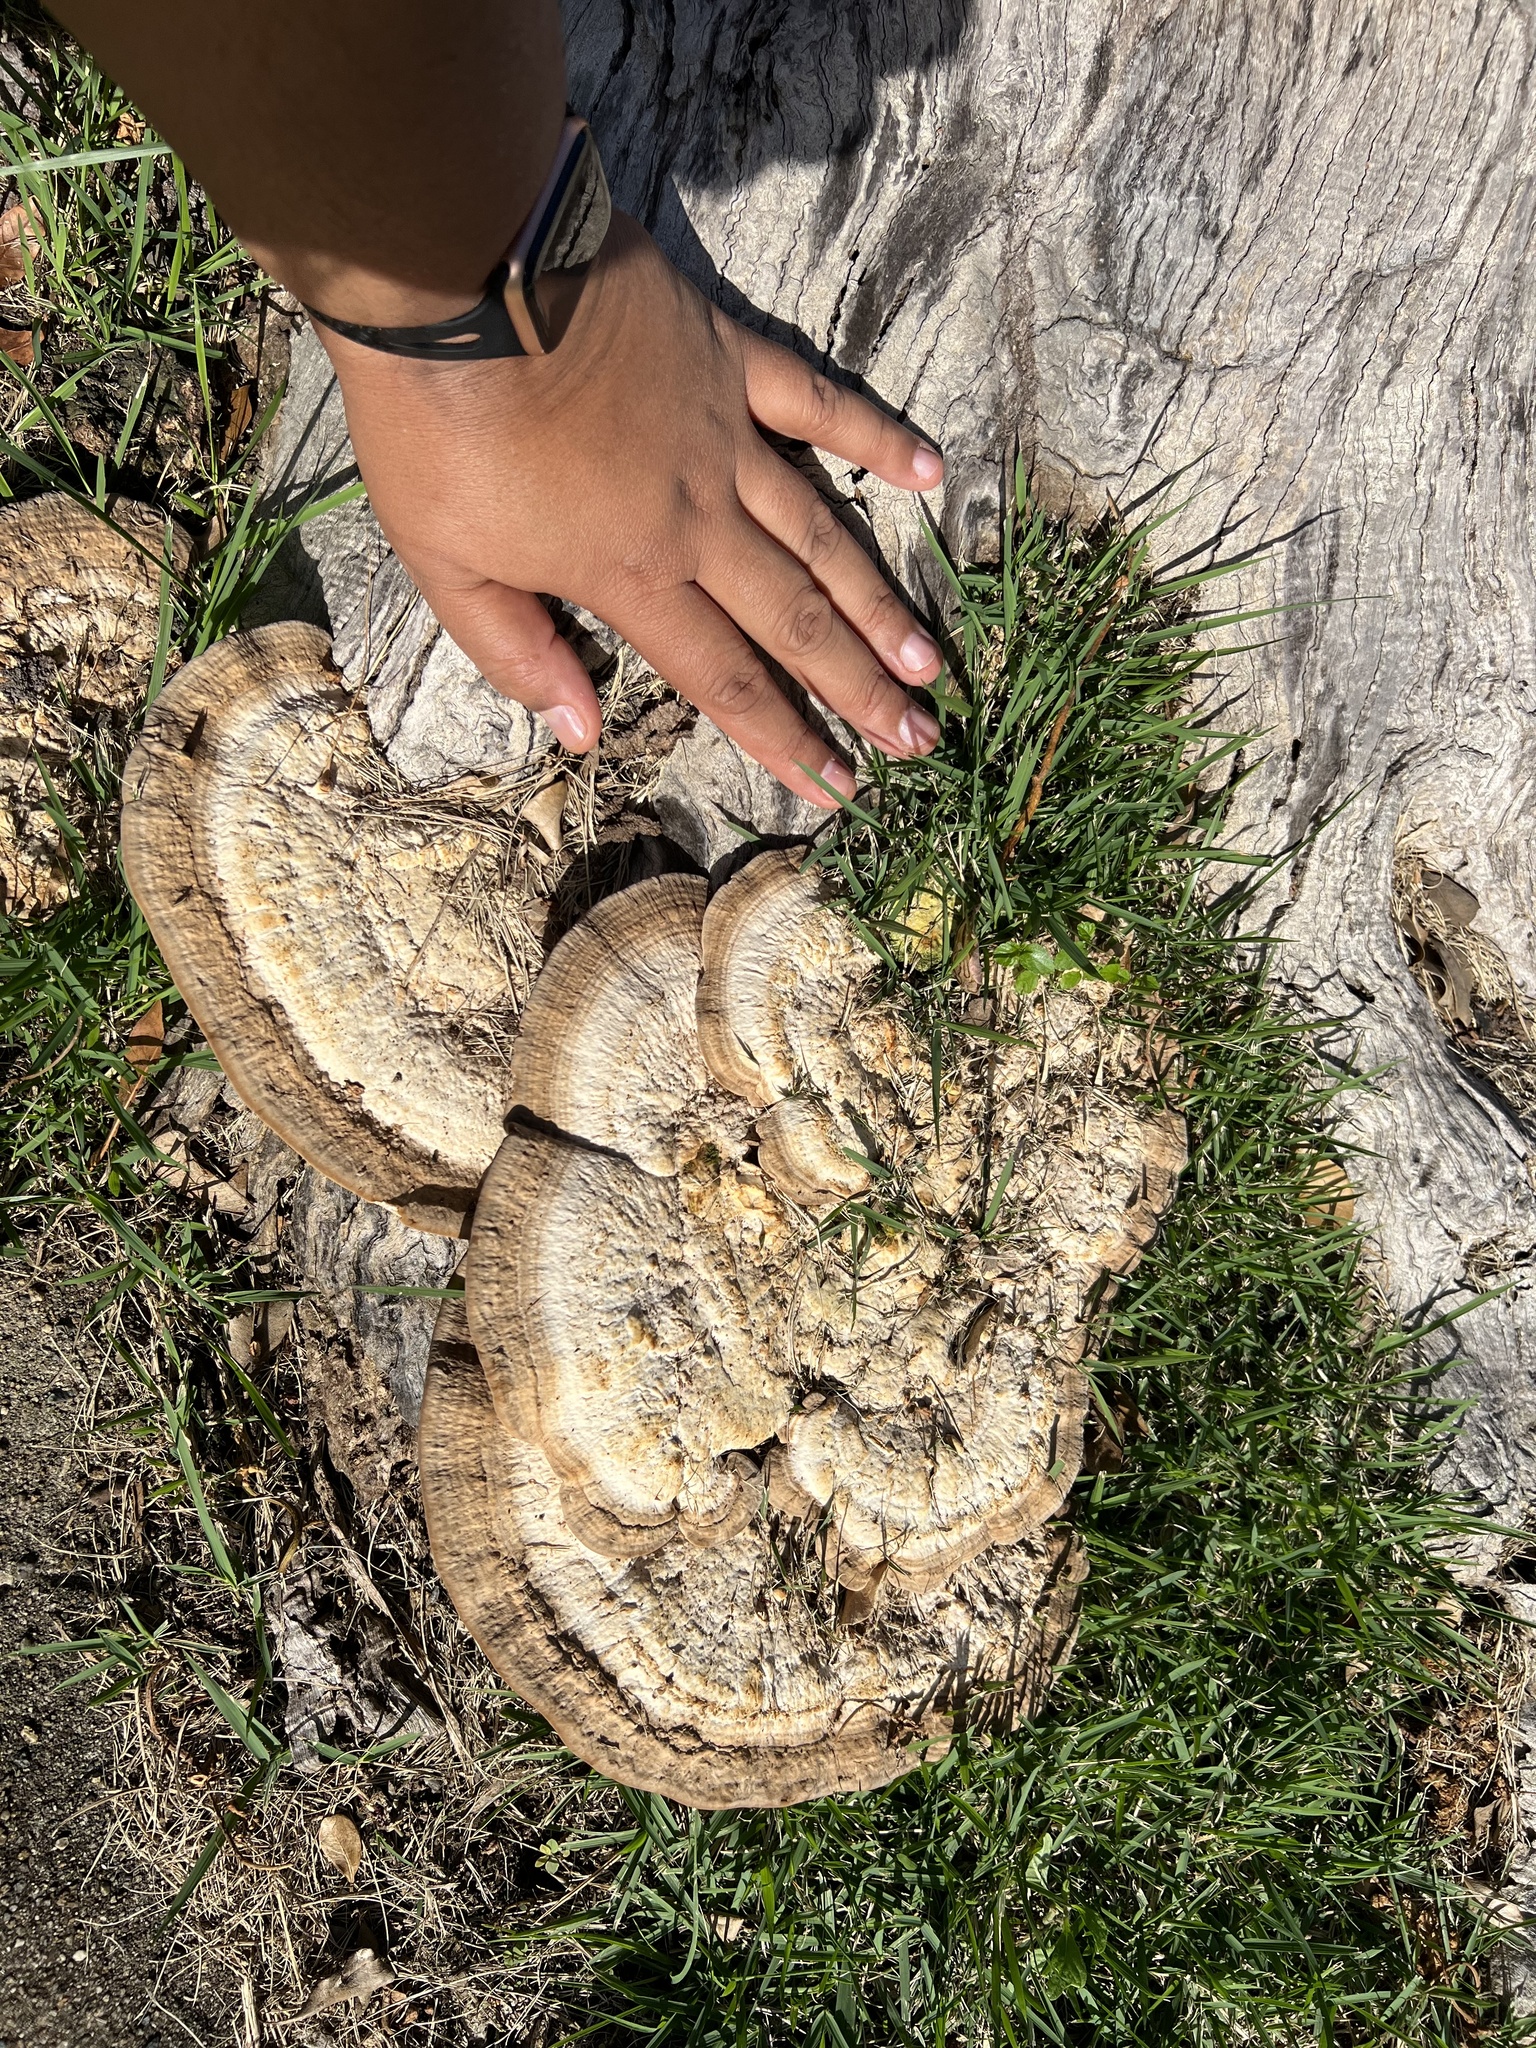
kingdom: Fungi
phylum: Basidiomycota
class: Agaricomycetes
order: Polyporales
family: Polyporaceae
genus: Trametes
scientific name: Trametes lactinea
